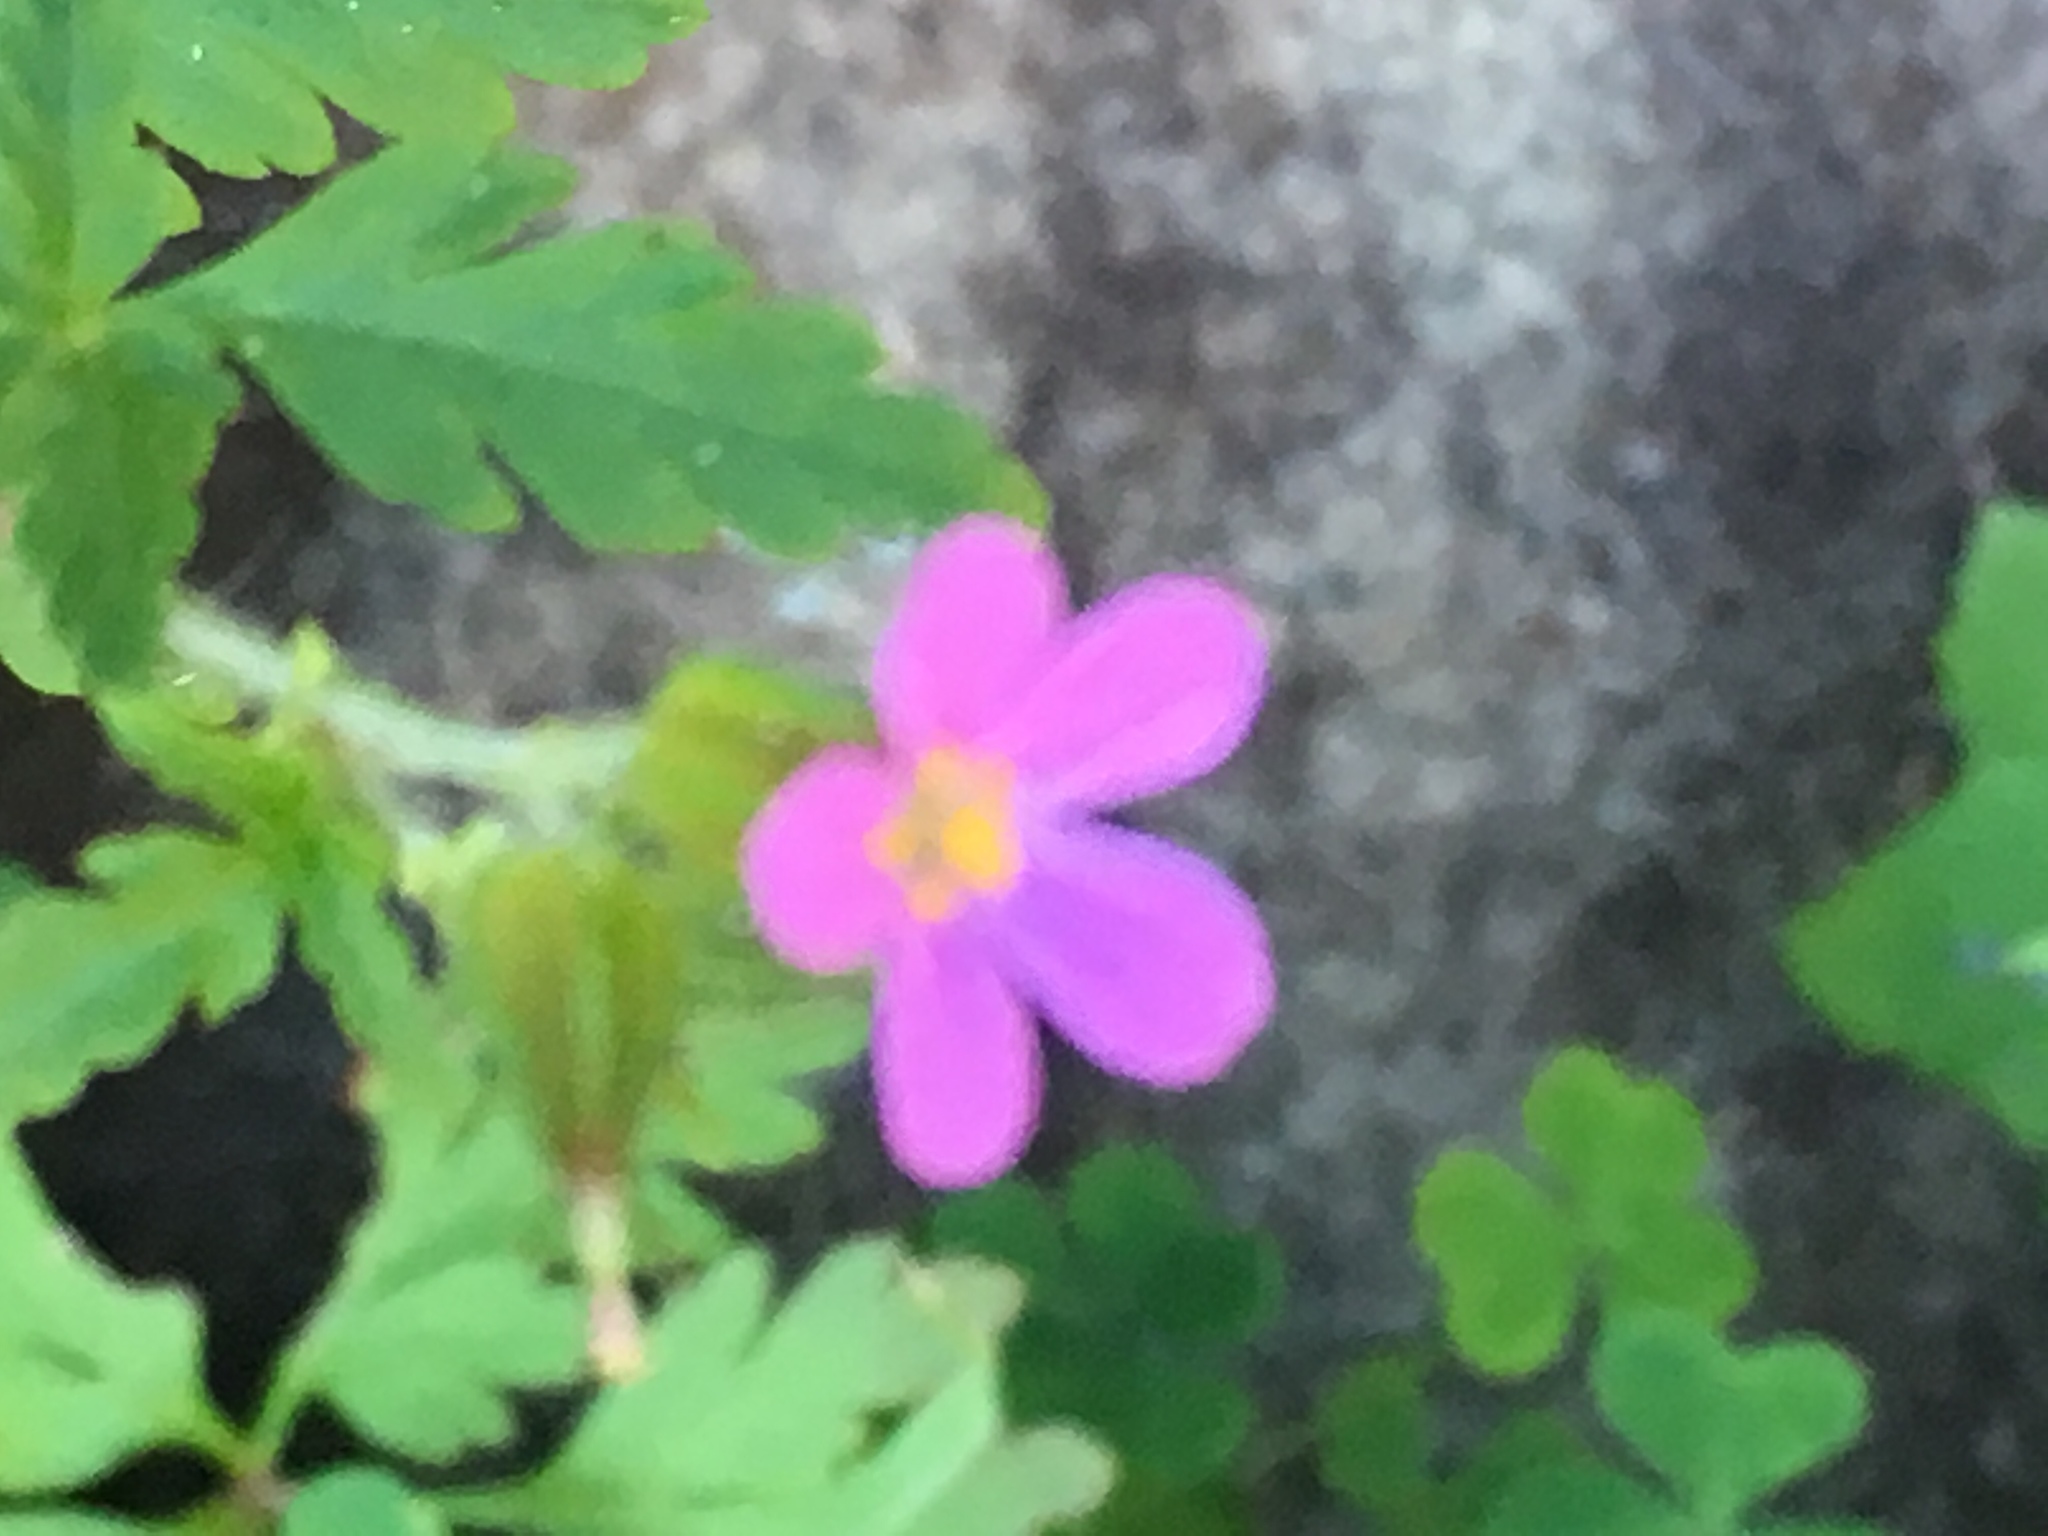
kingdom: Plantae
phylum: Tracheophyta
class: Magnoliopsida
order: Geraniales
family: Geraniaceae
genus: Geranium
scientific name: Geranium purpureum
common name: Little-robin
